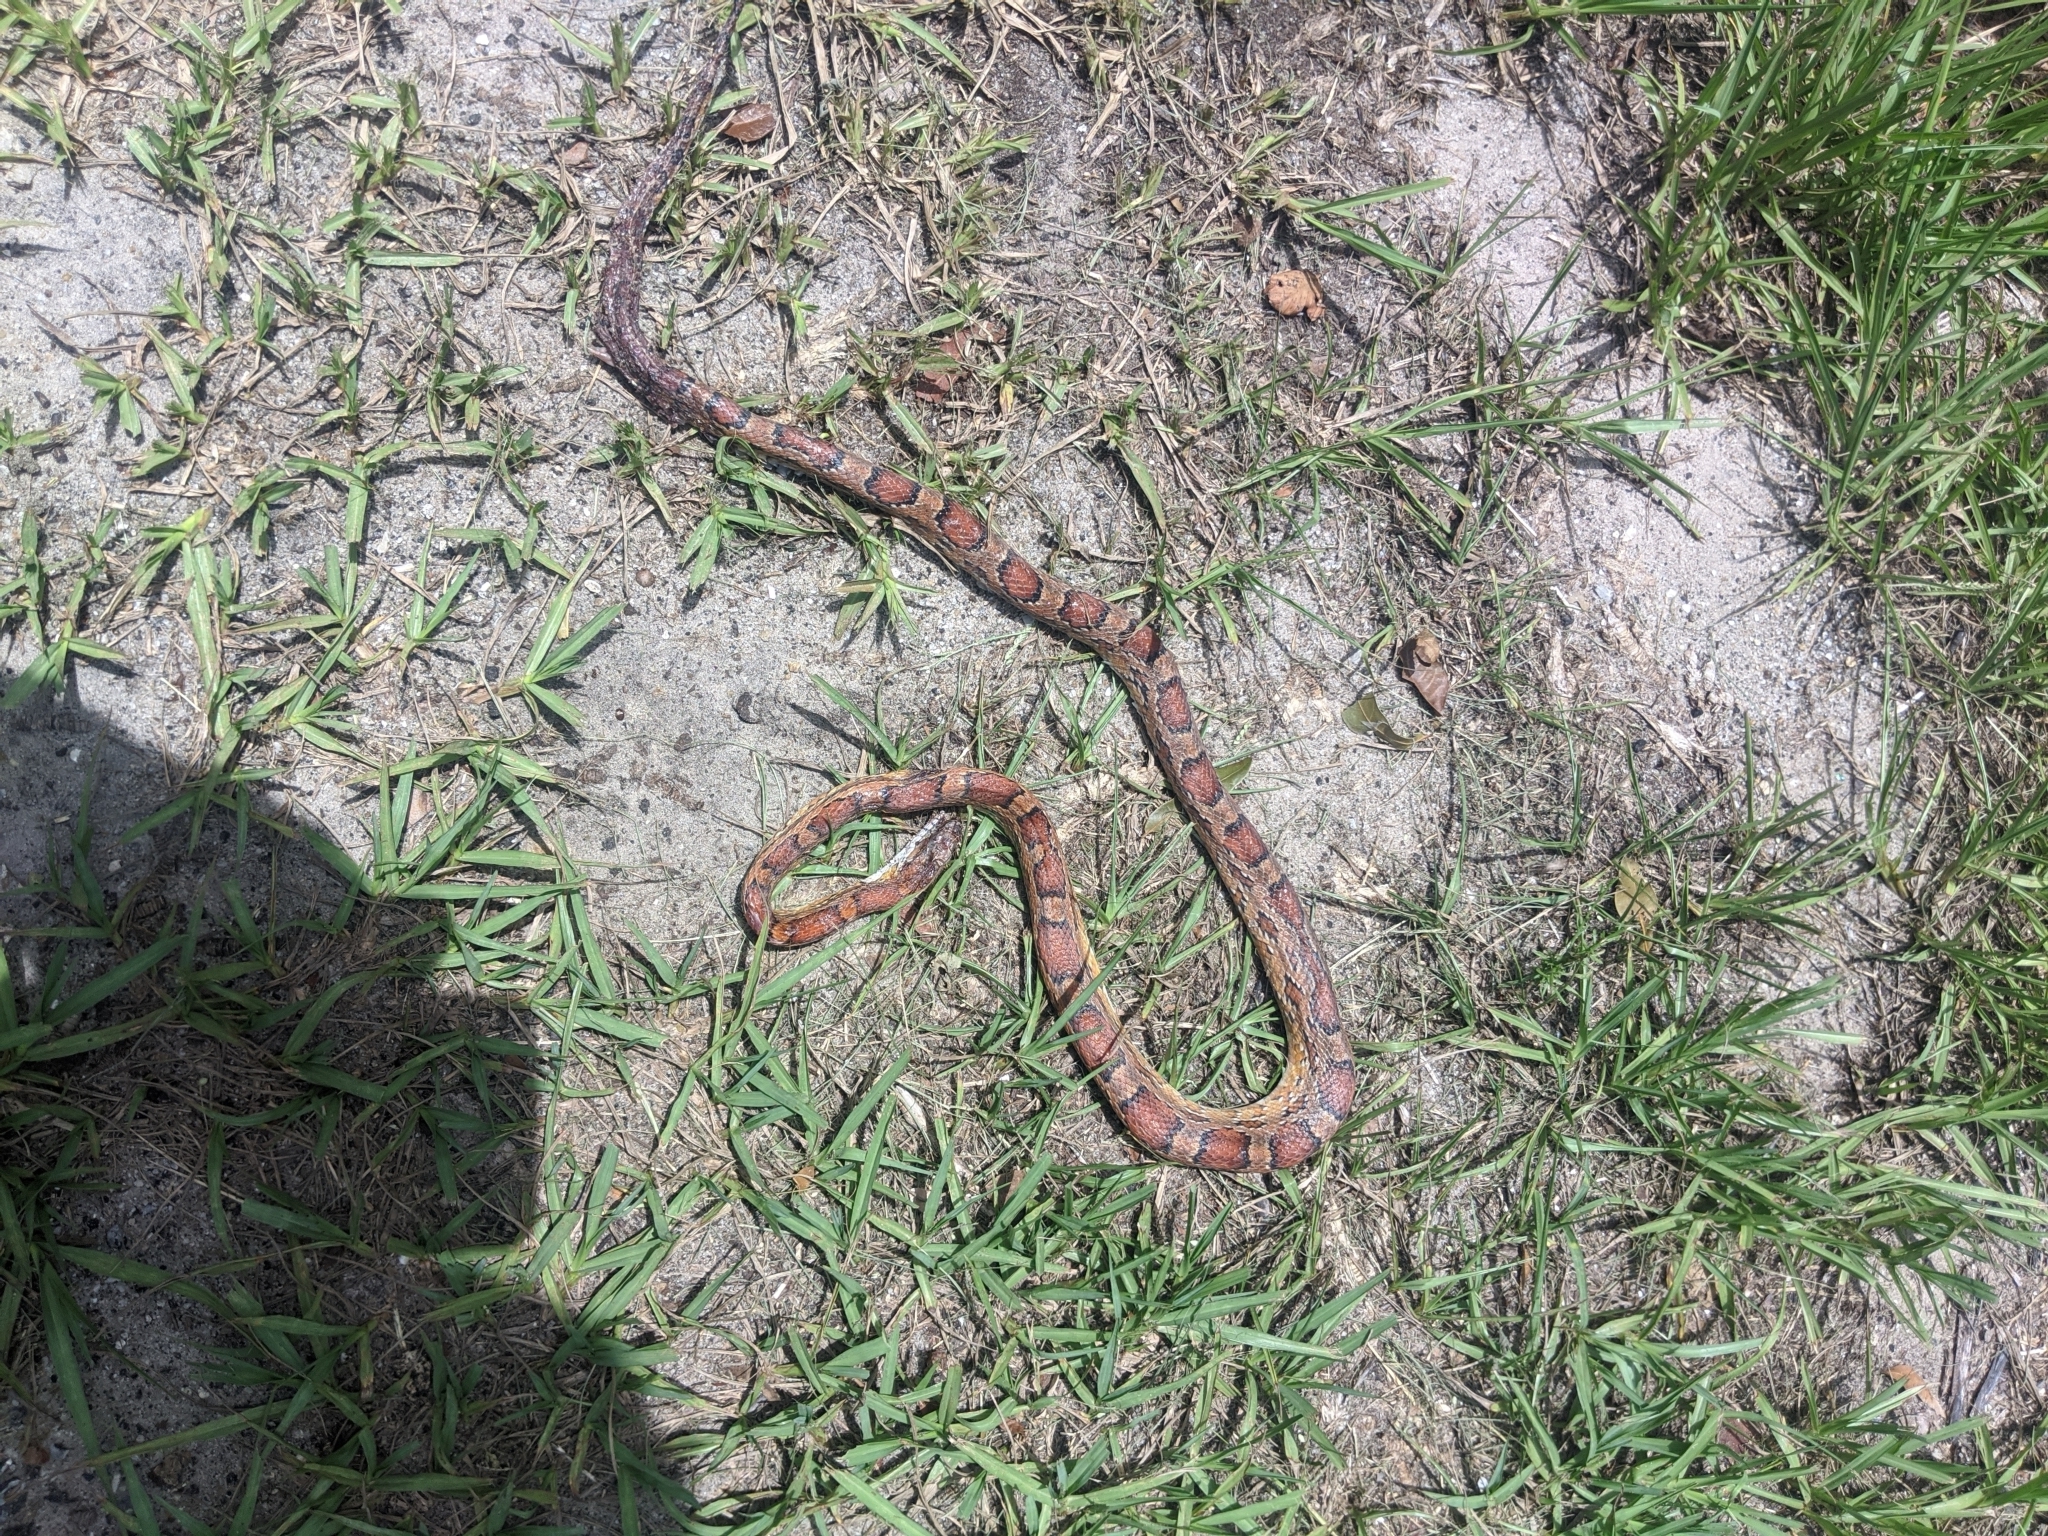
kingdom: Animalia
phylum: Chordata
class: Squamata
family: Colubridae
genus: Pantherophis
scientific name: Pantherophis guttatus
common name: Red cornsnake
